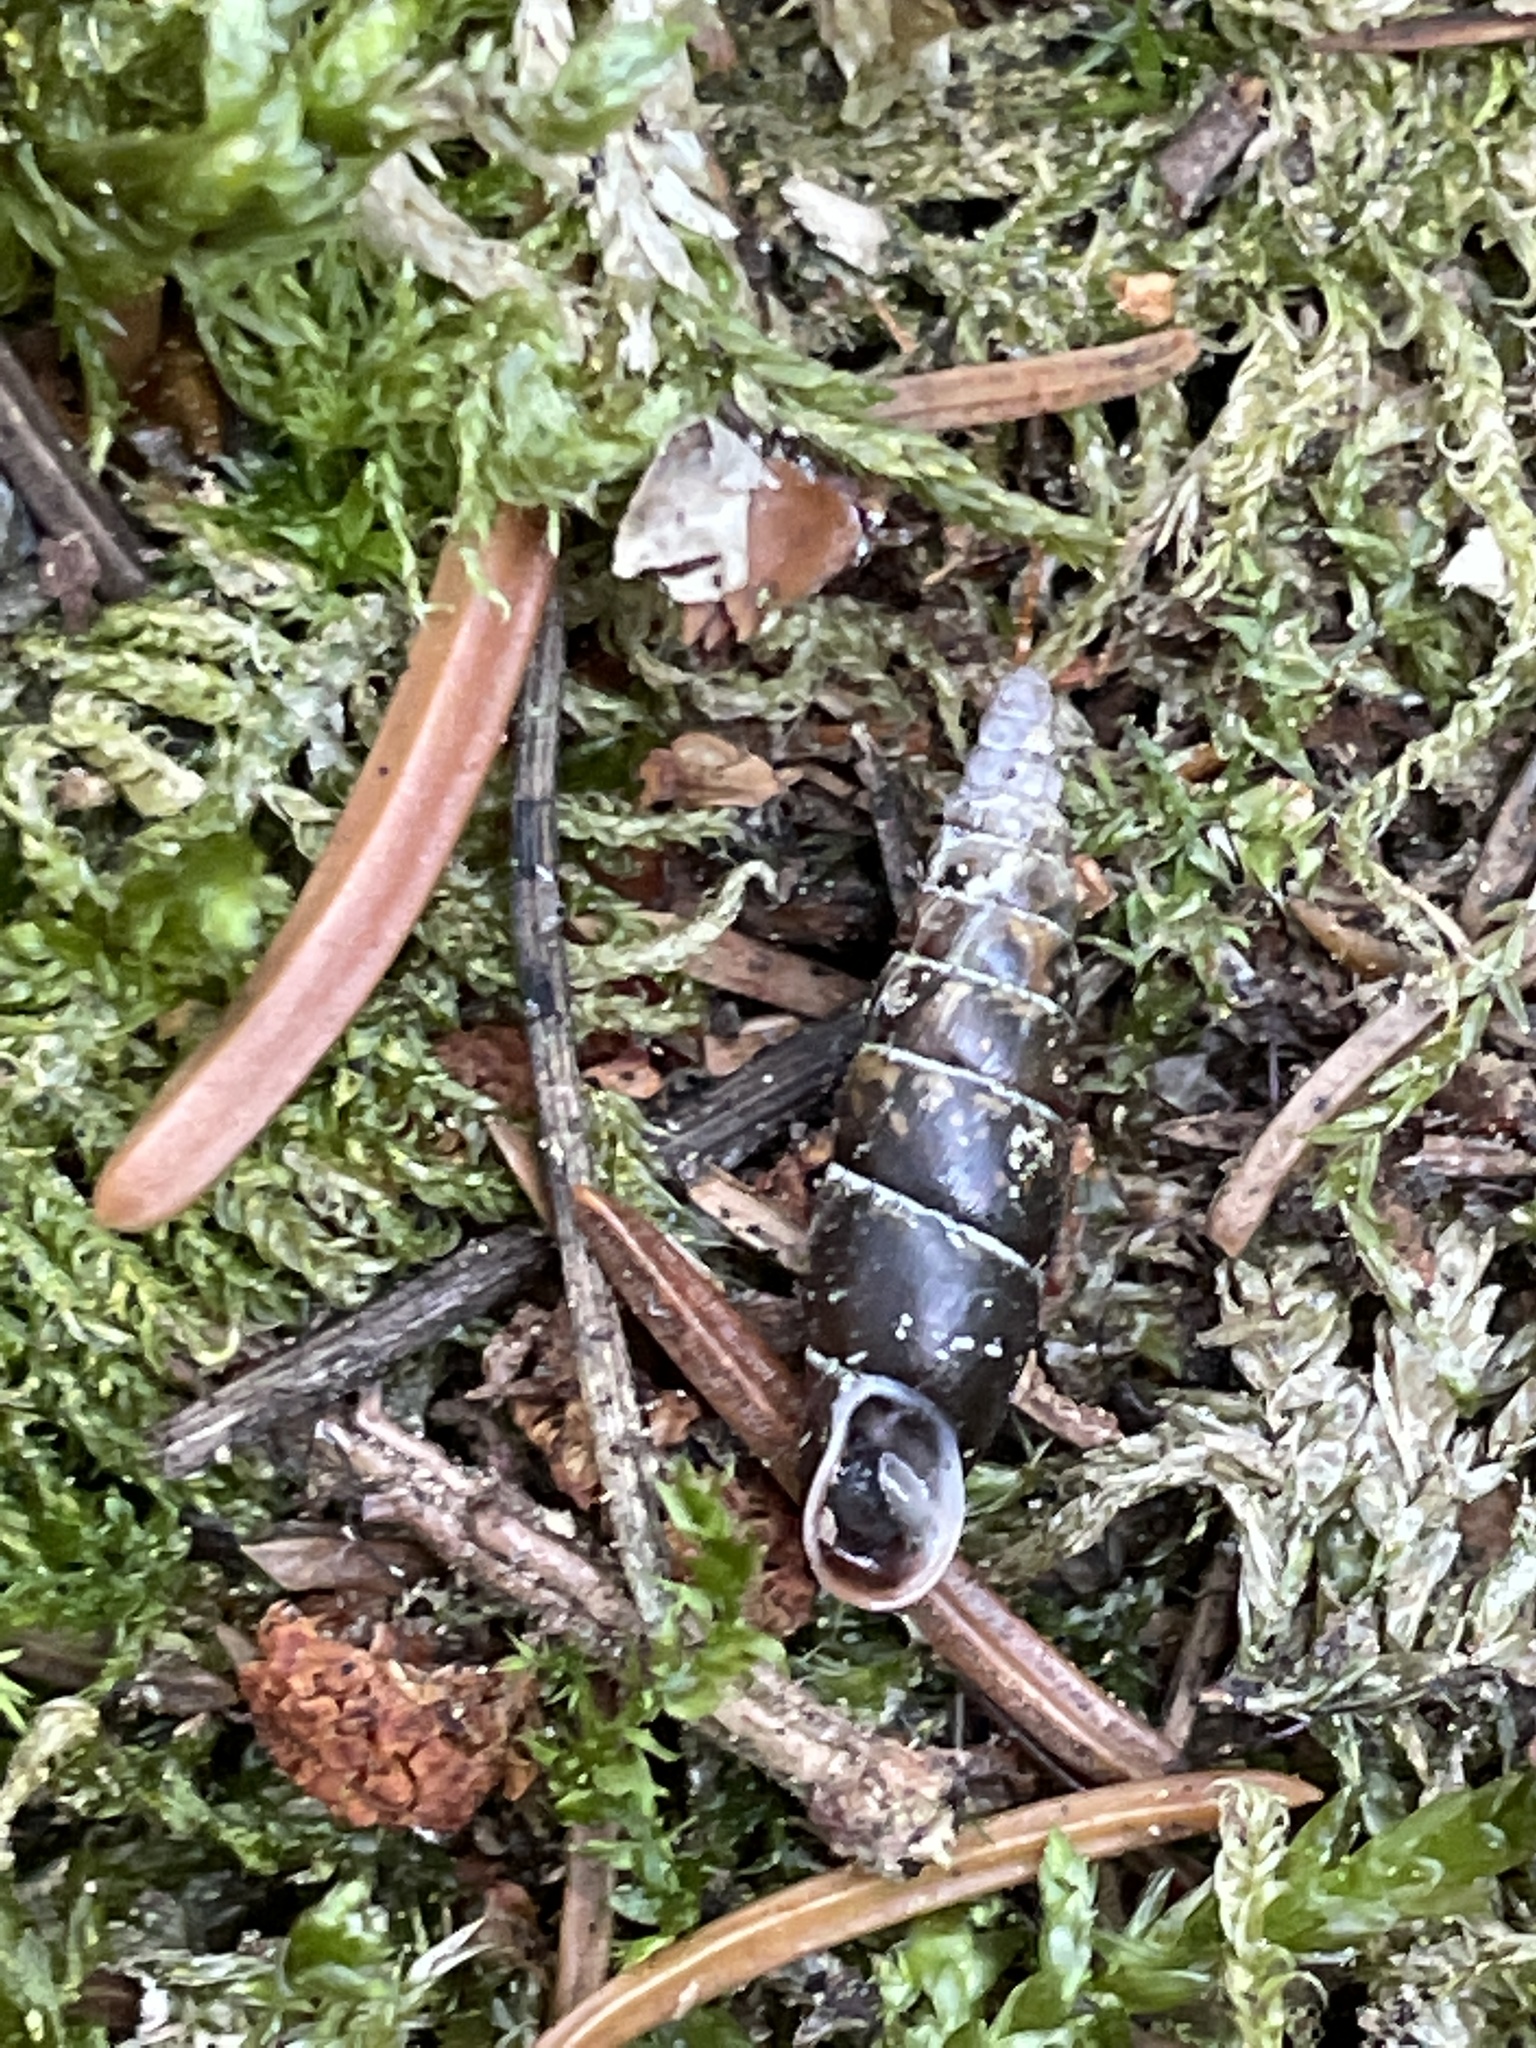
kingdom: Animalia
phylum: Mollusca
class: Gastropoda
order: Stylommatophora
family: Clausiliidae
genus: Cochlodina
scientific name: Cochlodina laminata
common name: Plaited door snail
